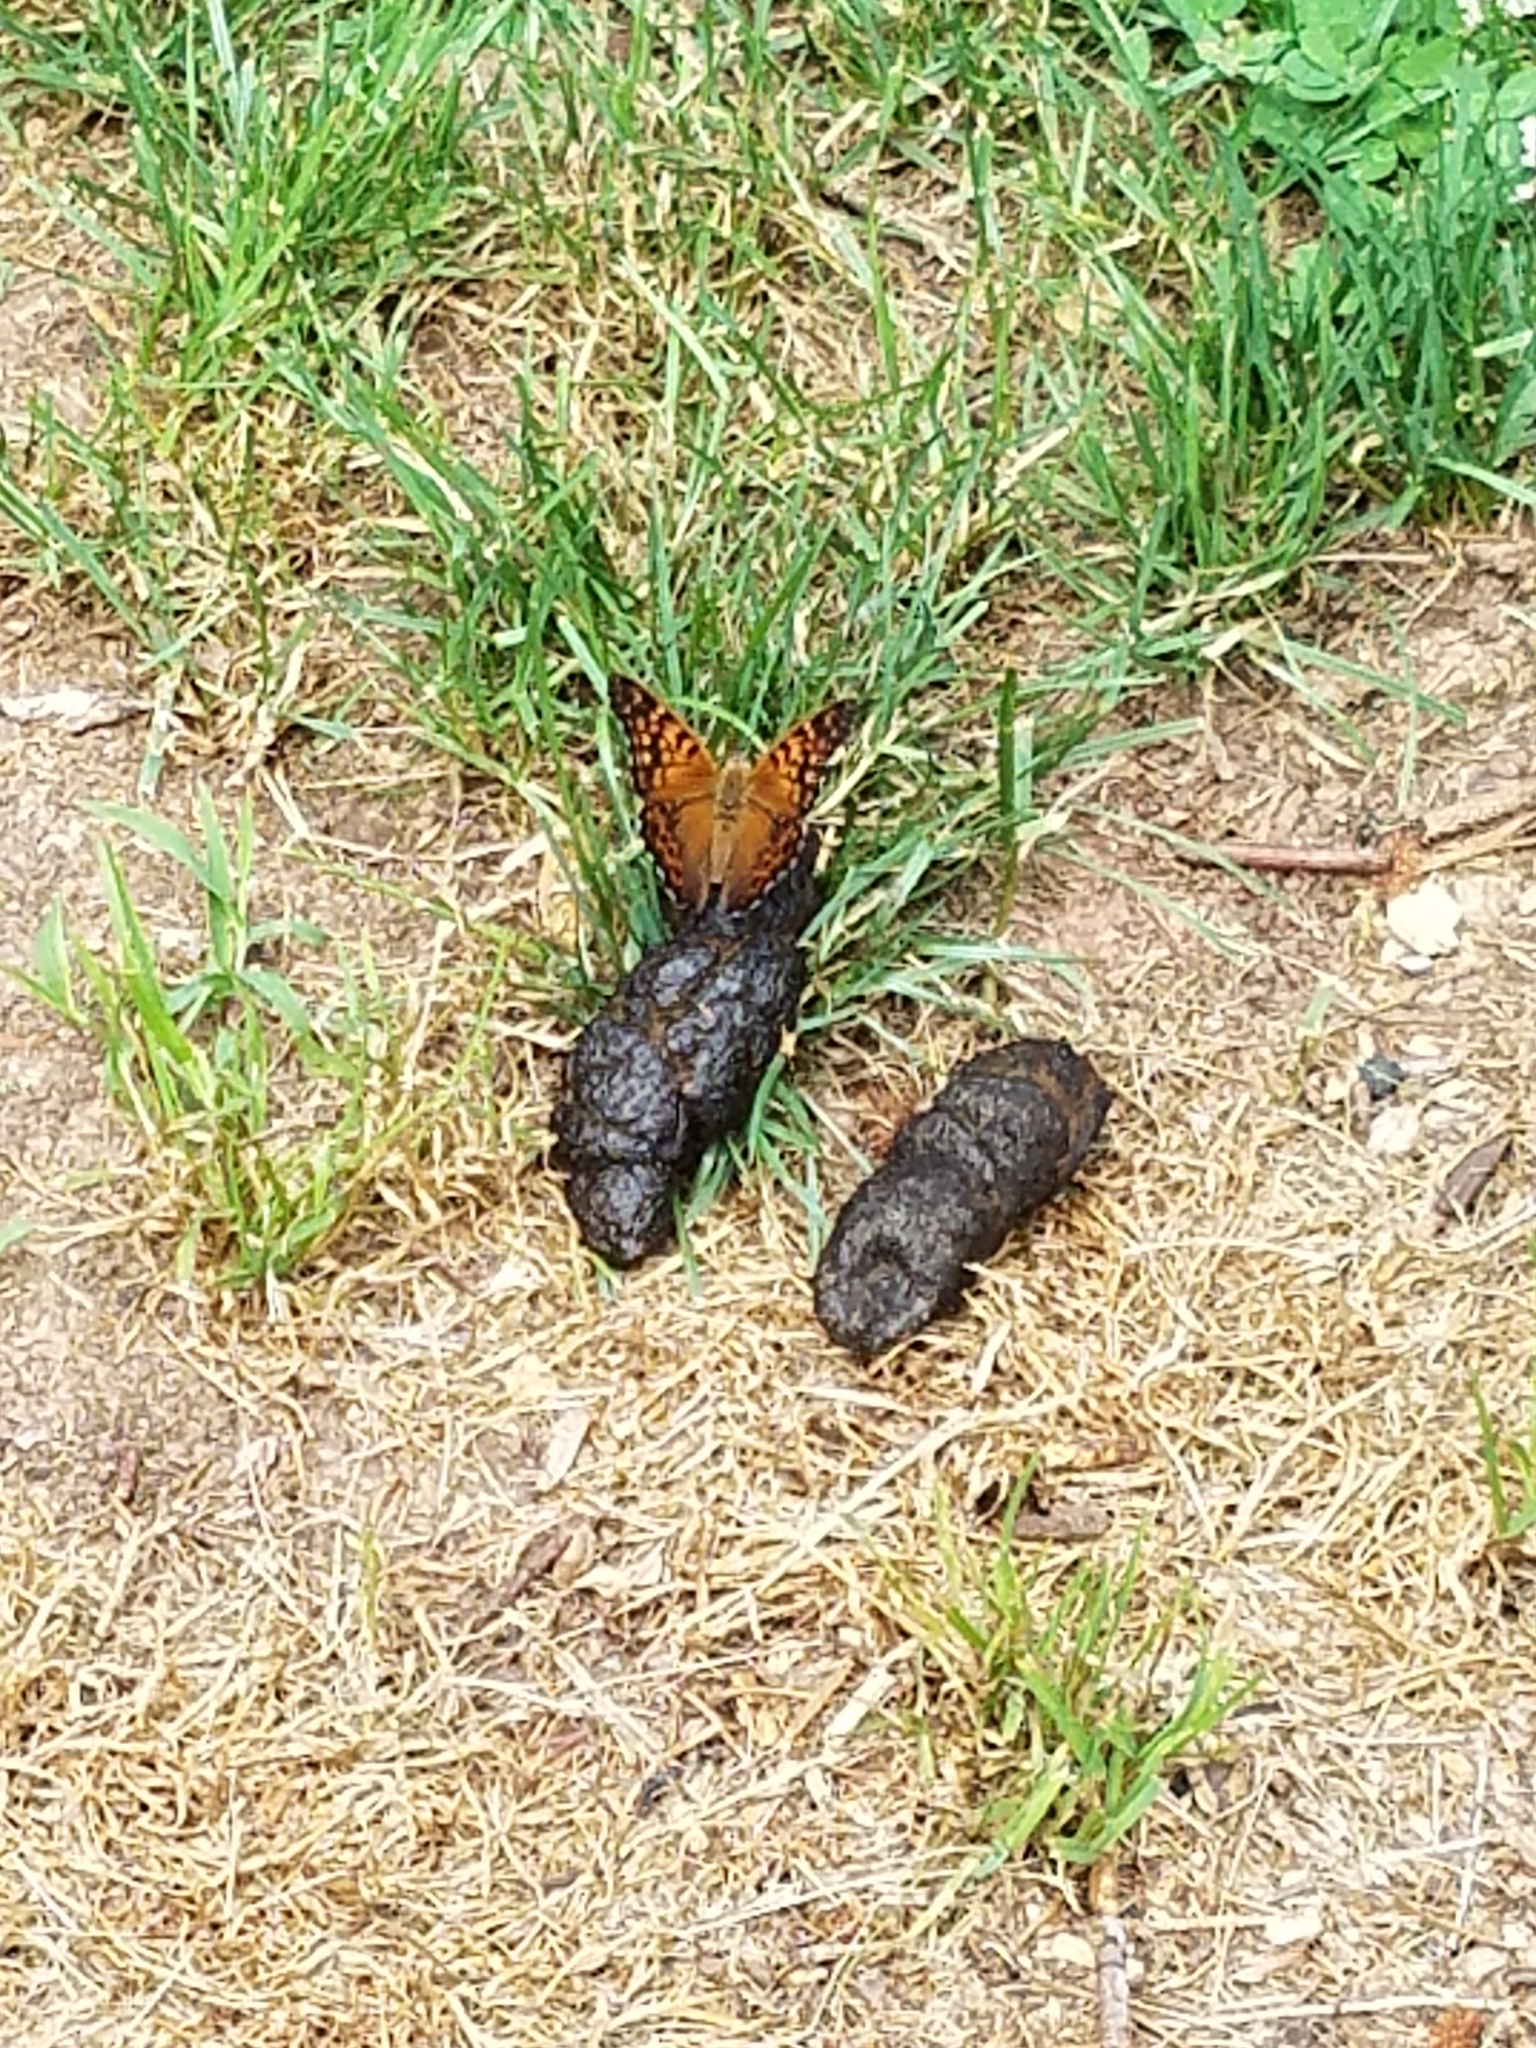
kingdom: Animalia
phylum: Arthropoda
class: Insecta
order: Lepidoptera
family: Nymphalidae
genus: Asterocampa
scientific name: Asterocampa clyton
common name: Tawny emperor
